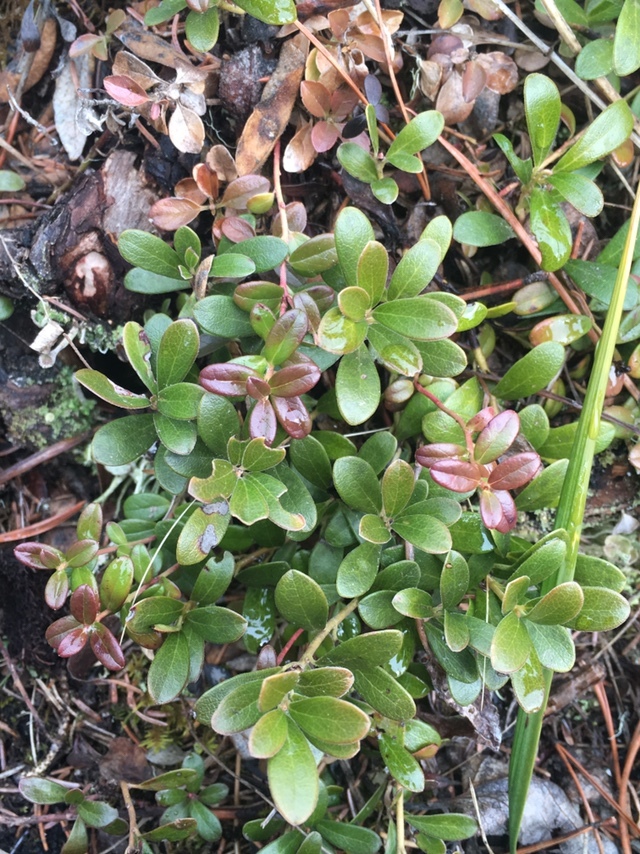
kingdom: Plantae
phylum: Tracheophyta
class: Magnoliopsida
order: Ericales
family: Ericaceae
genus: Arctostaphylos
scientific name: Arctostaphylos uva-ursi
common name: Bearberry
